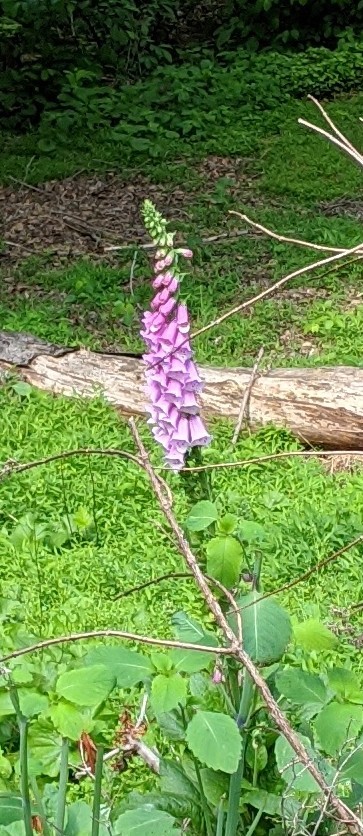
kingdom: Plantae
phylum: Tracheophyta
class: Magnoliopsida
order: Lamiales
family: Plantaginaceae
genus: Digitalis
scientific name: Digitalis purpurea
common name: Foxglove
